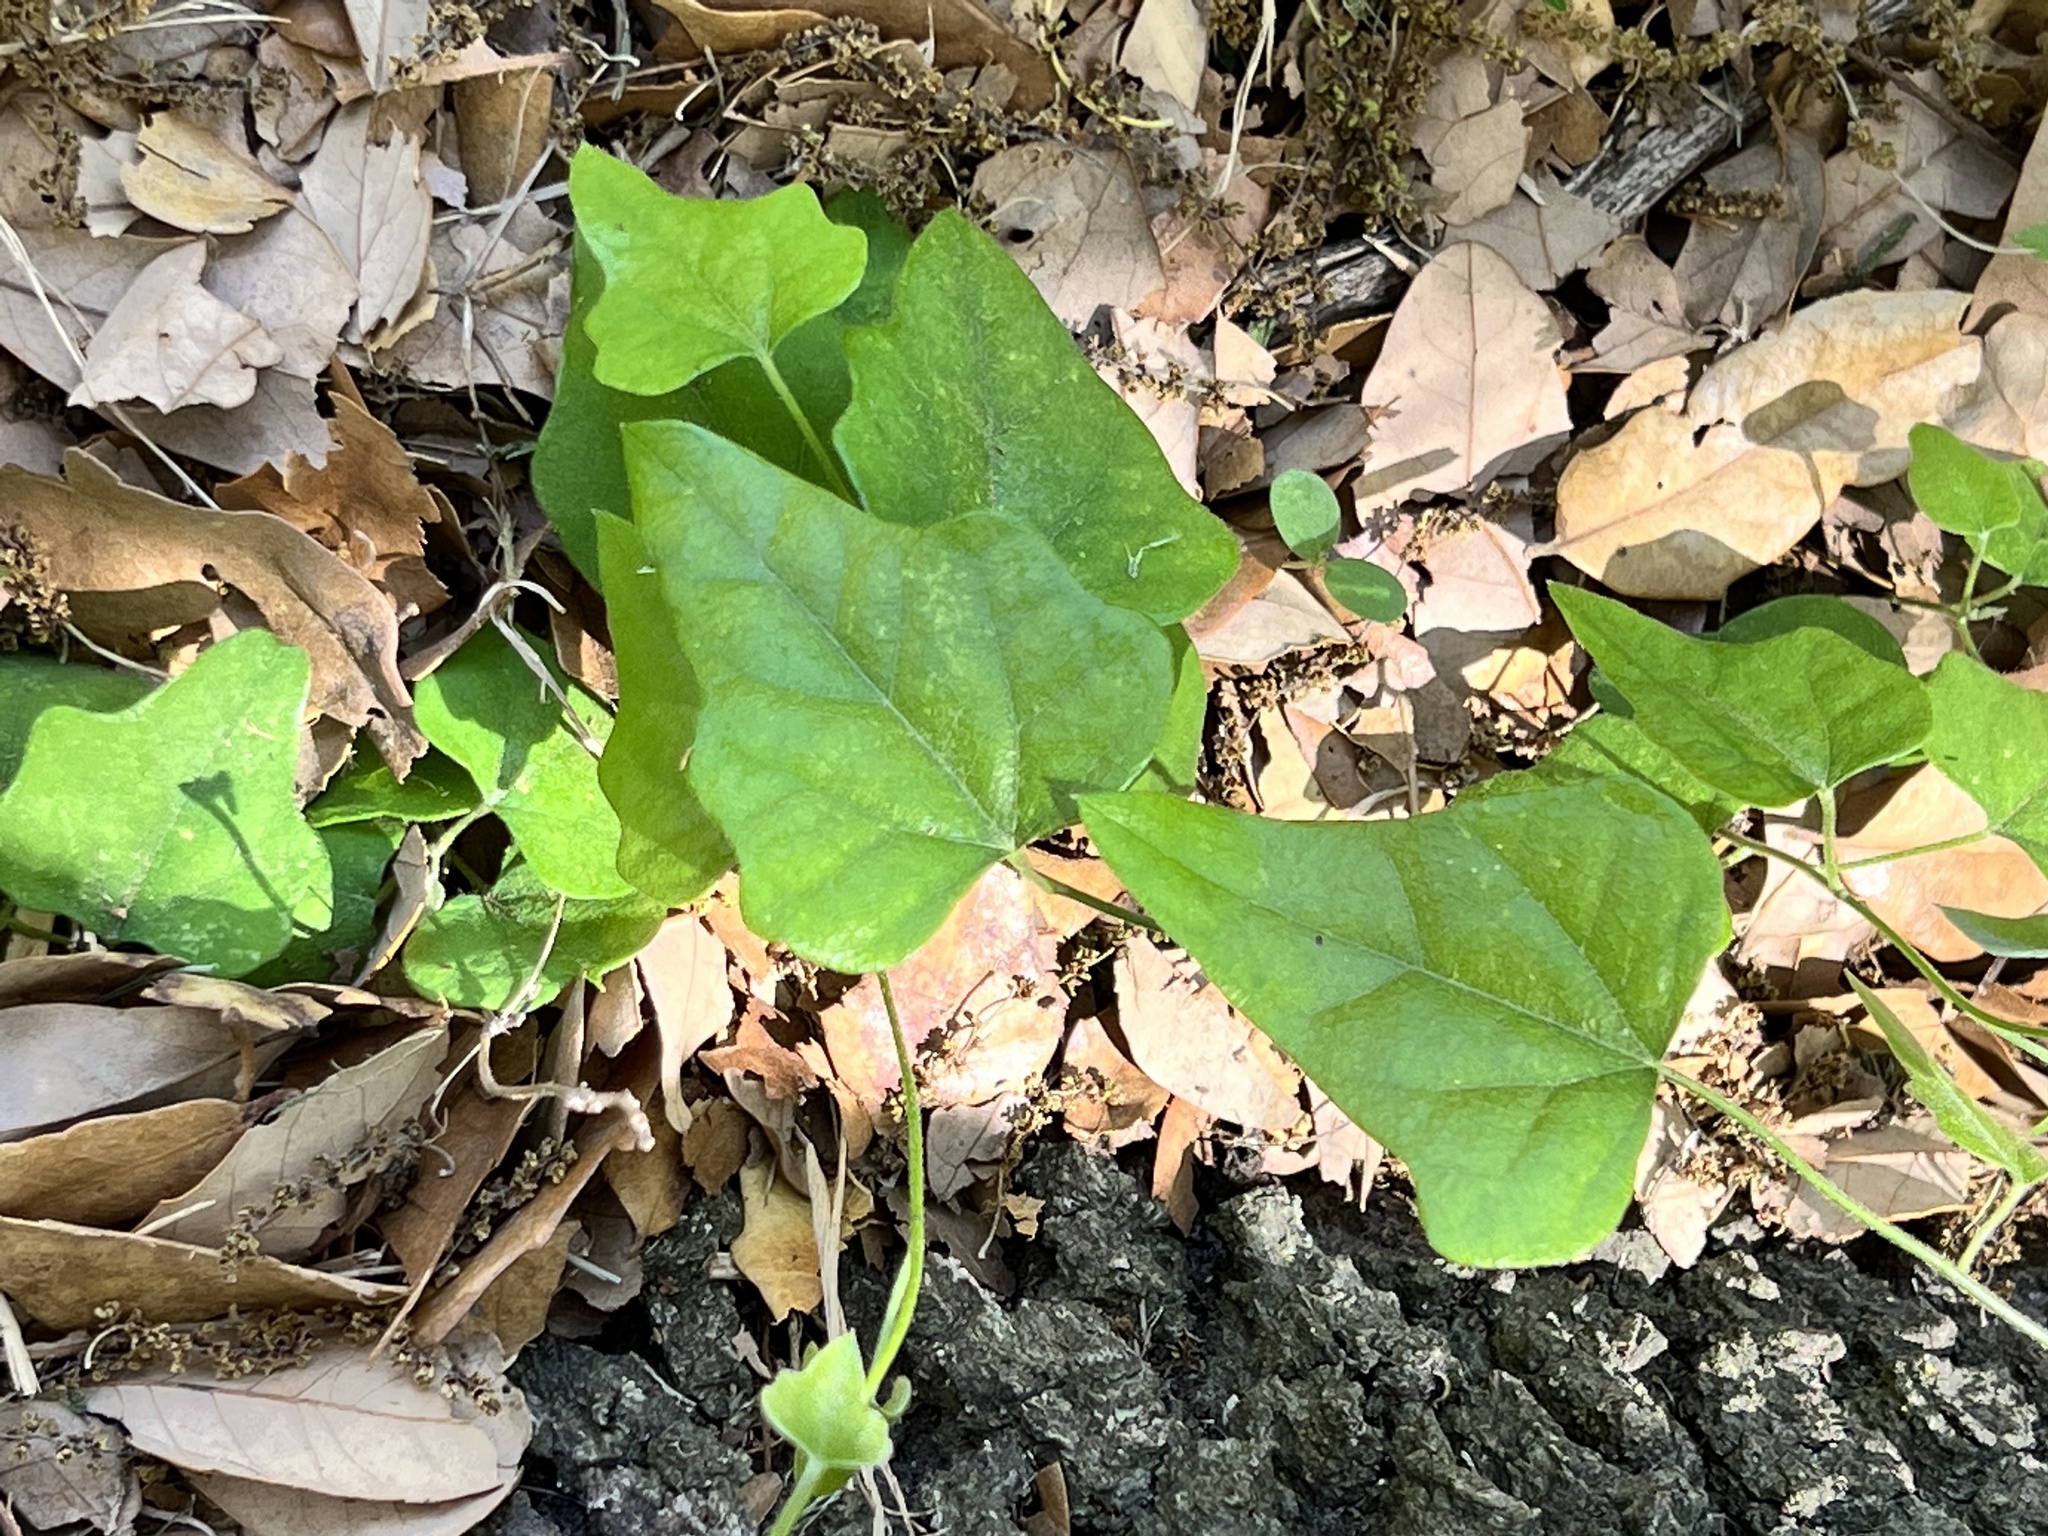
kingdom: Plantae
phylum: Tracheophyta
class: Magnoliopsida
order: Ranunculales
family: Menispermaceae
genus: Cocculus
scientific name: Cocculus carolinus
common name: Carolina moonseed
